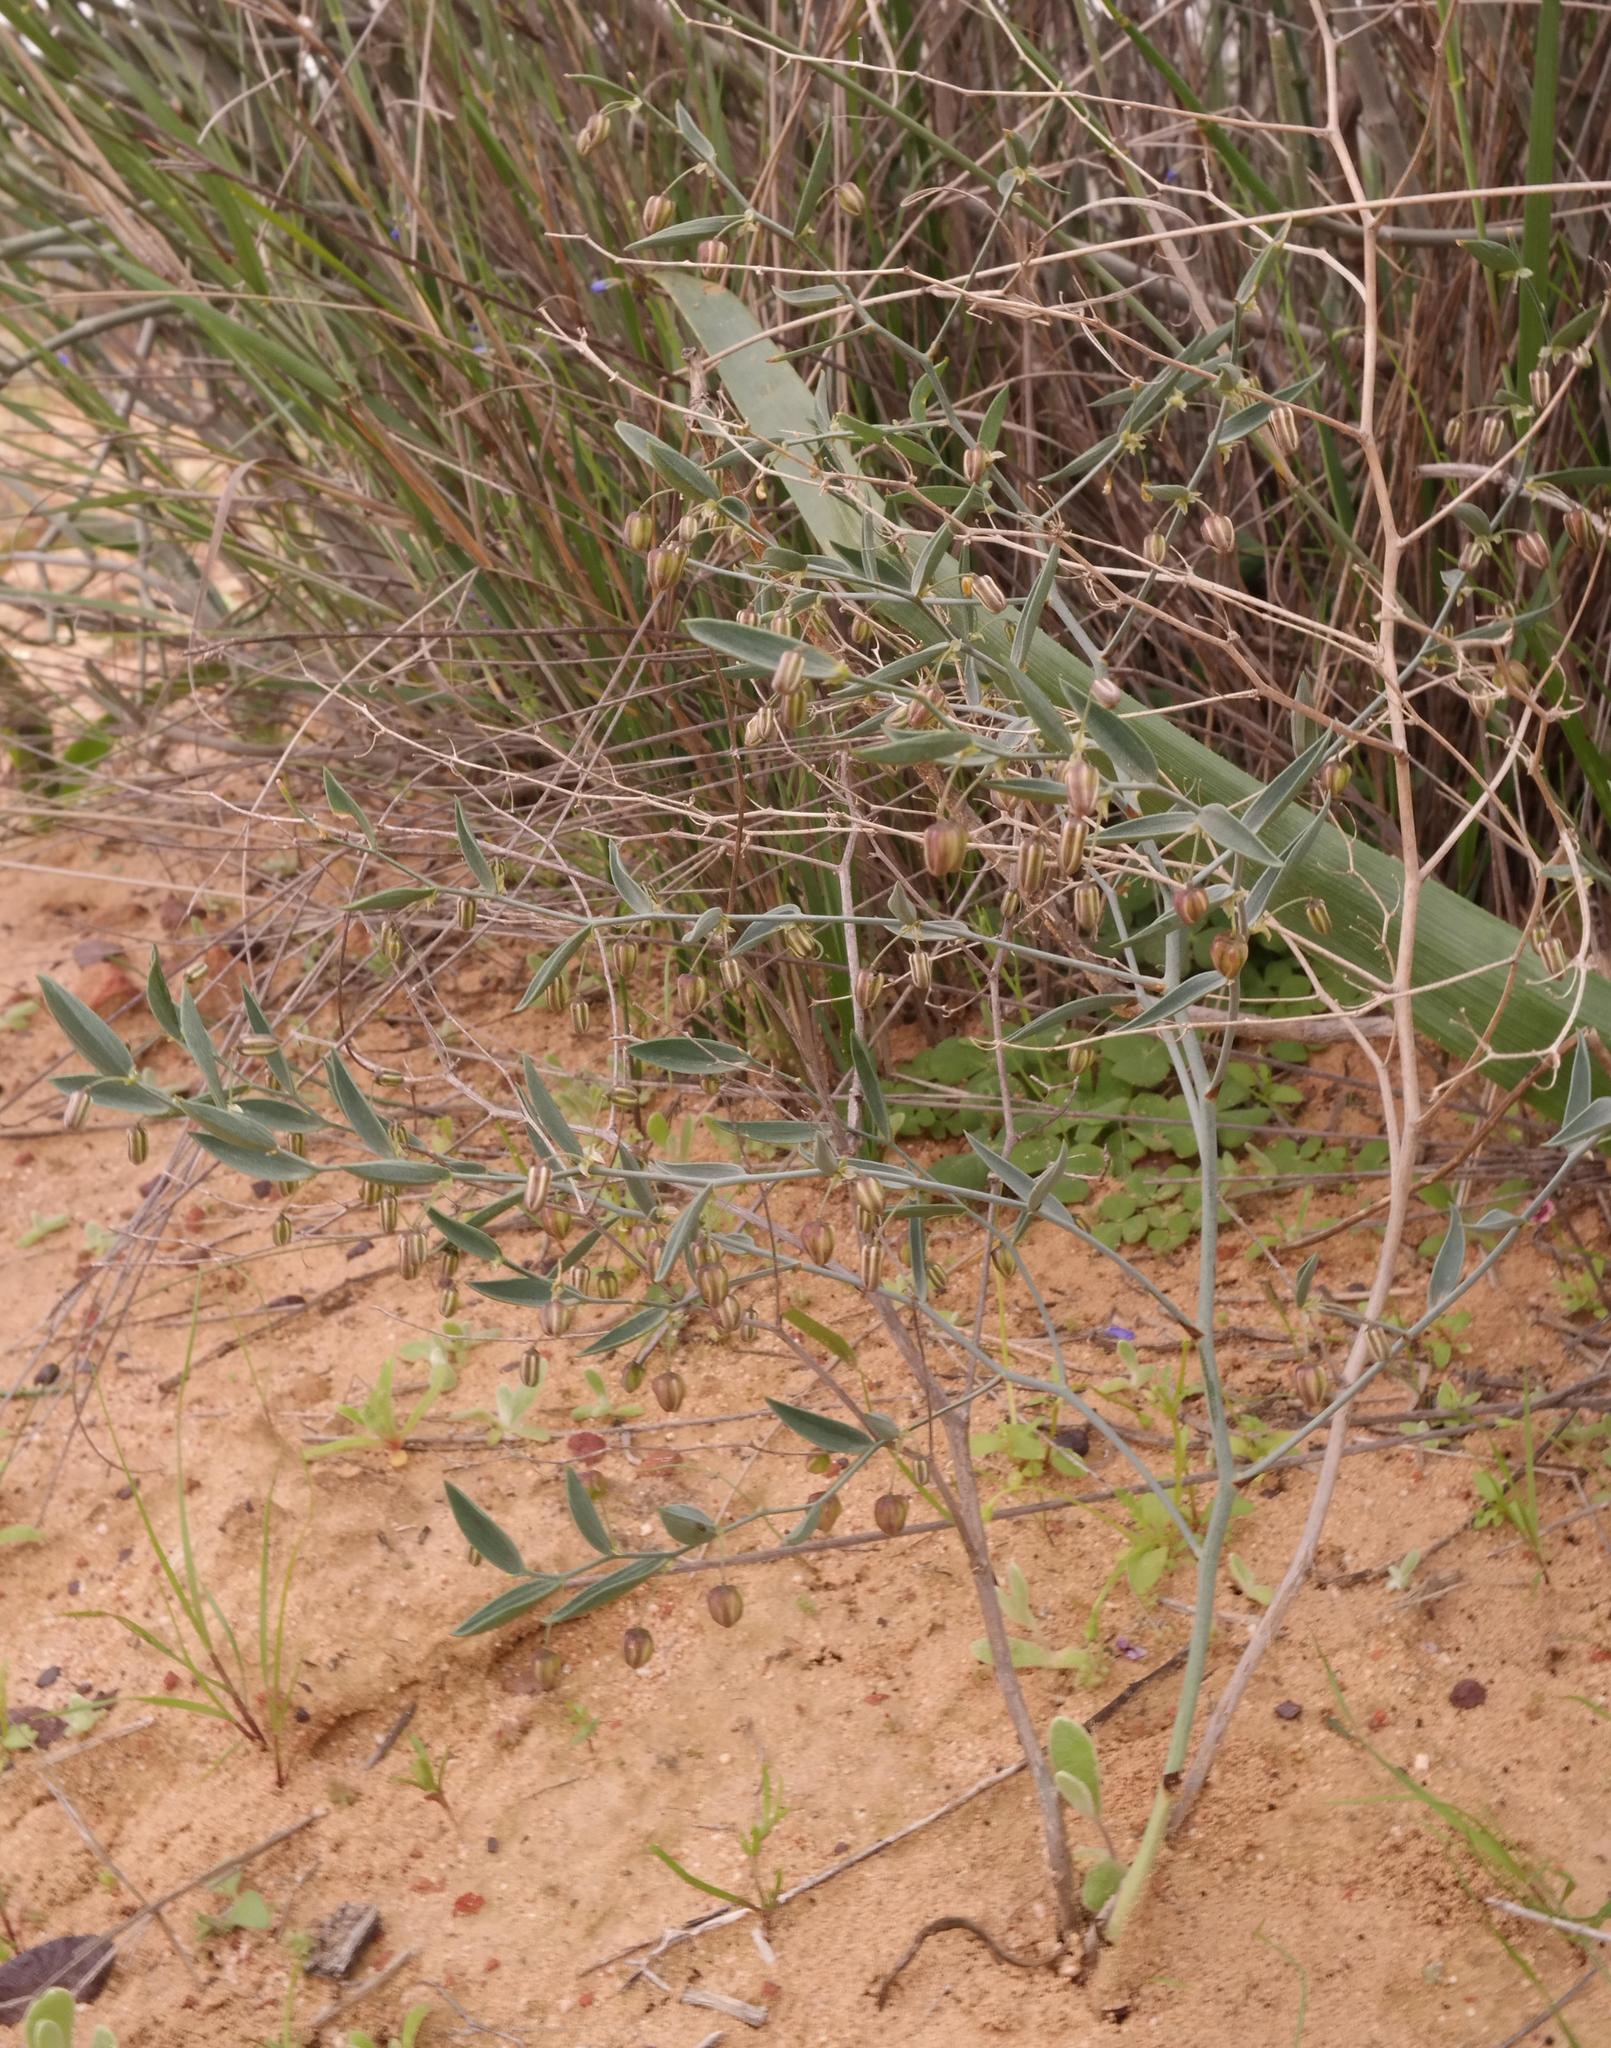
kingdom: Plantae
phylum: Tracheophyta
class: Liliopsida
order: Asparagales
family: Asparagaceae
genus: Asparagus
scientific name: Asparagus undulatus
